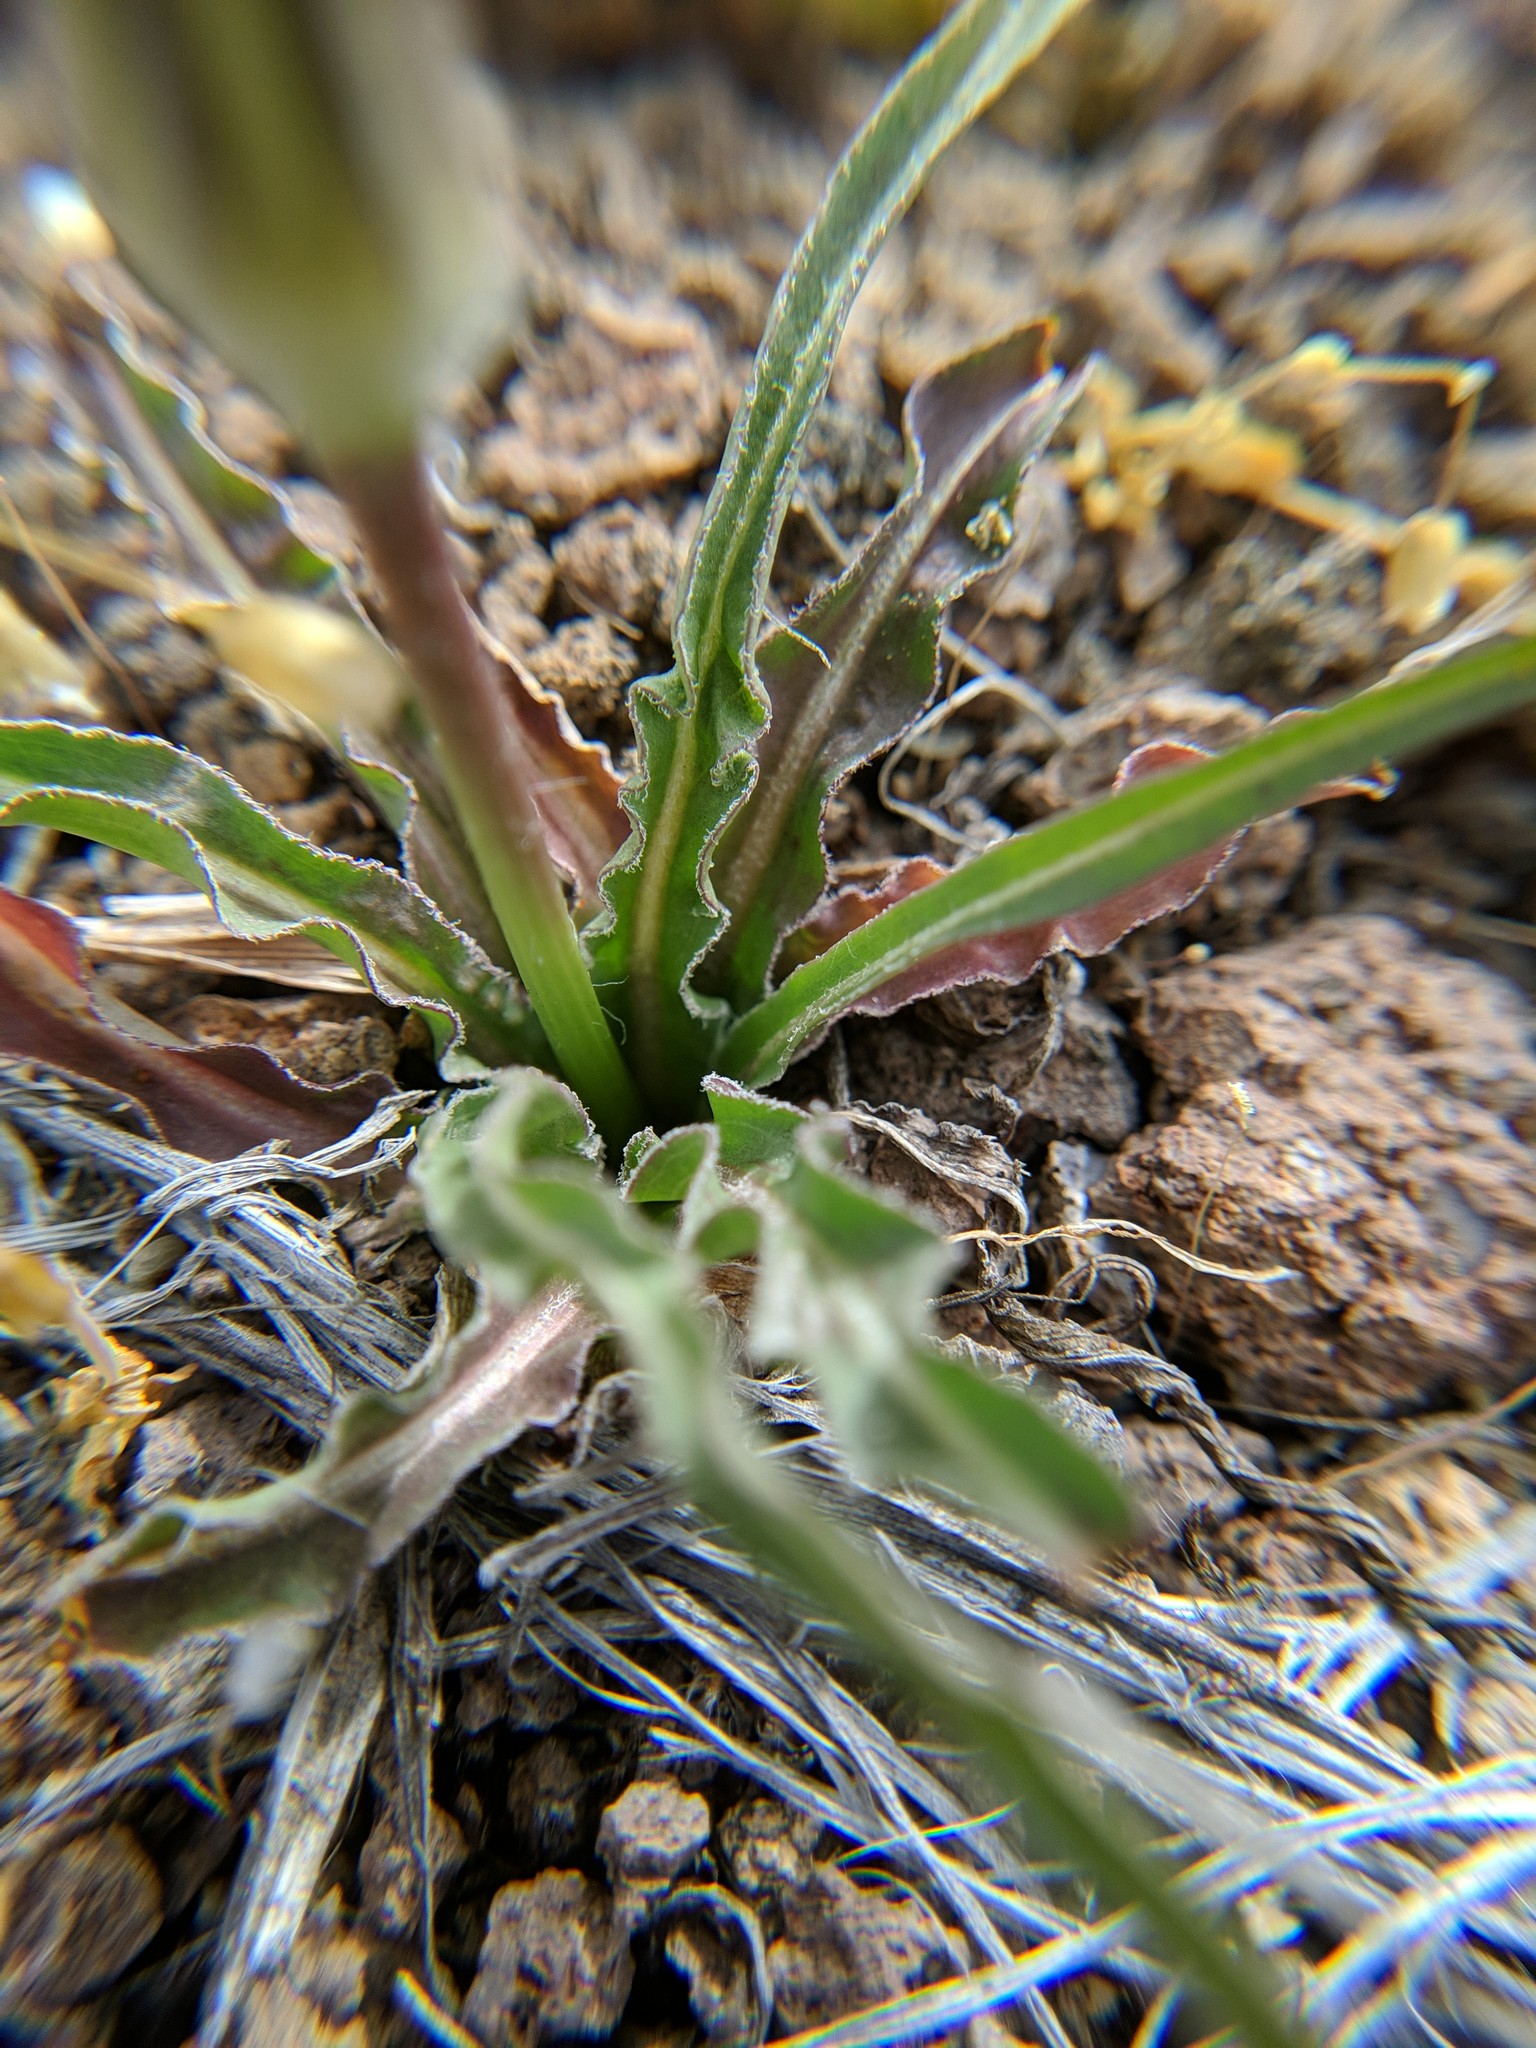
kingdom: Plantae
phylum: Tracheophyta
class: Magnoliopsida
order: Asterales
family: Asteraceae
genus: Microseris
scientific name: Microseris troximoides
